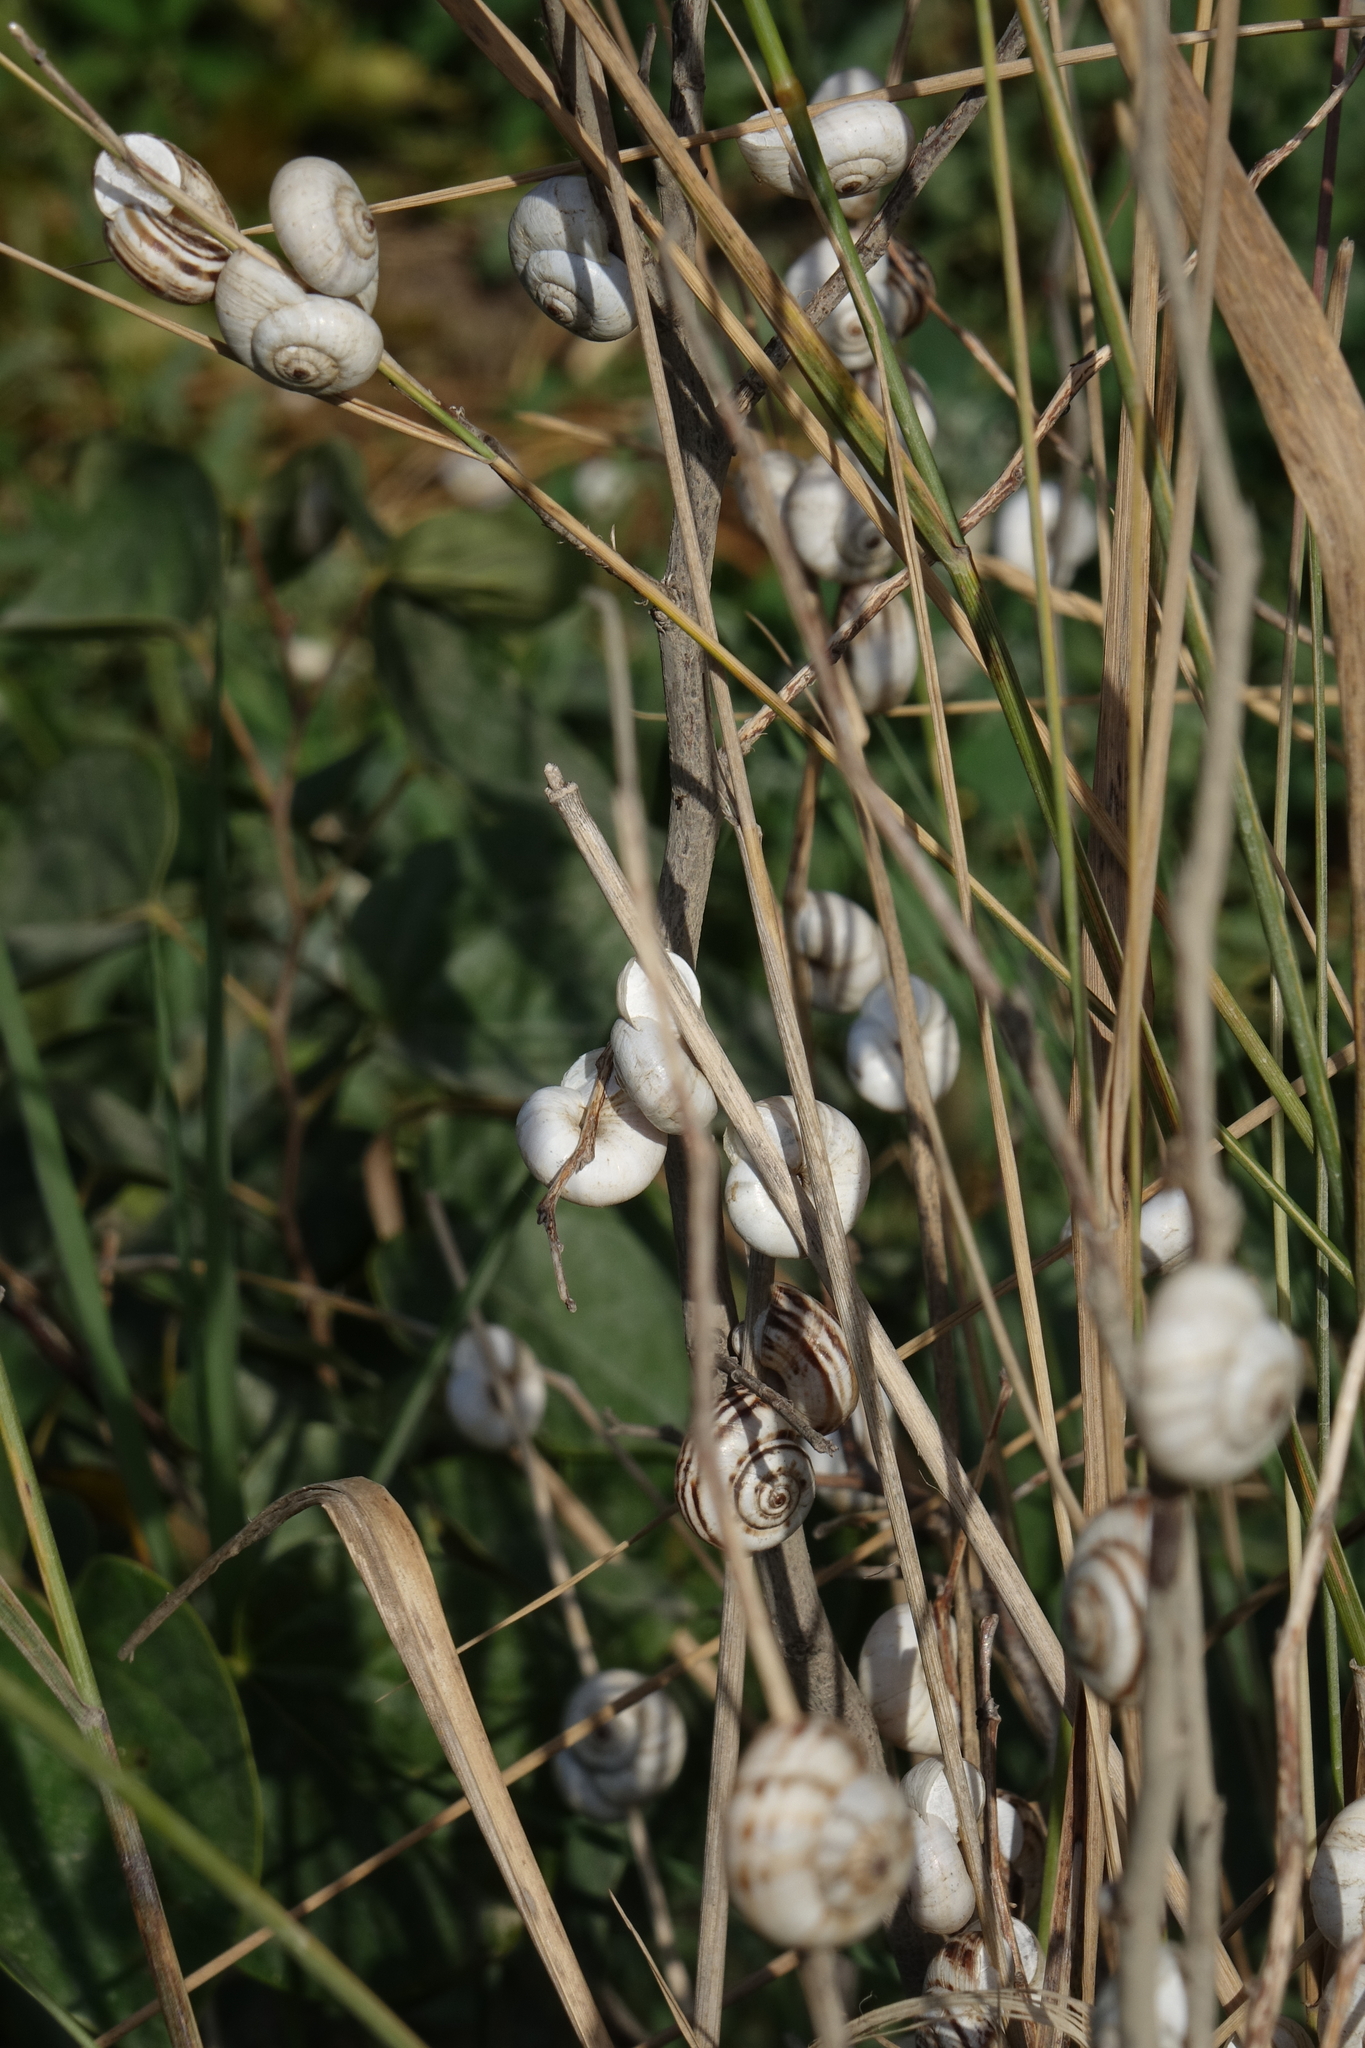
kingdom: Animalia
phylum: Mollusca
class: Gastropoda
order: Stylommatophora
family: Geomitridae
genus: Xeropicta
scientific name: Xeropicta derbentina
